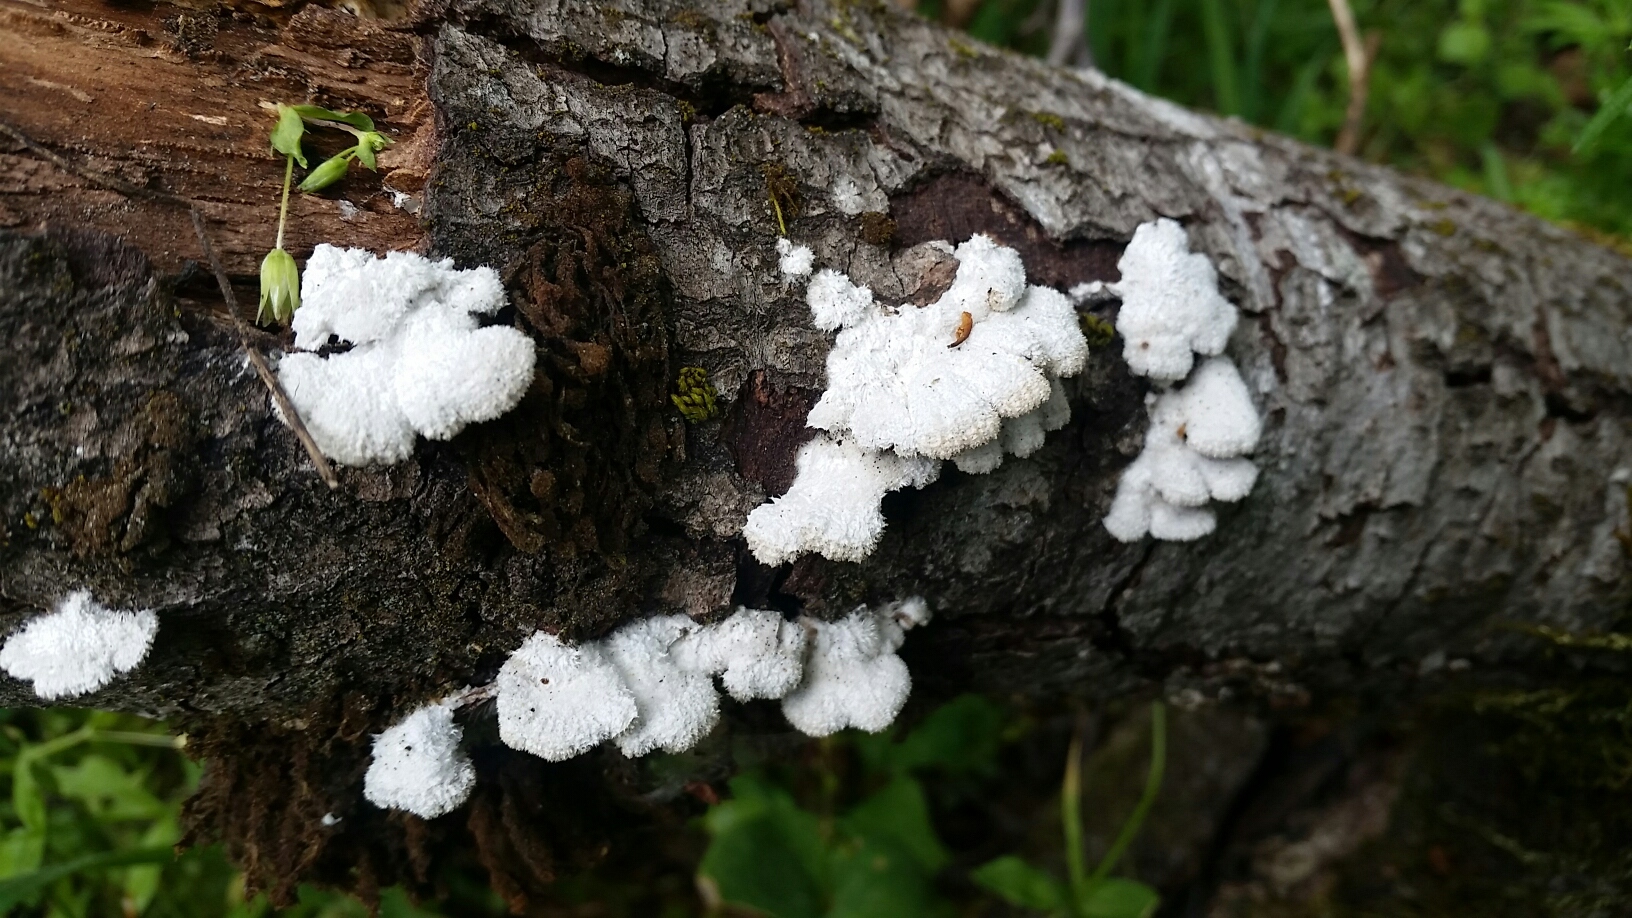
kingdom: Fungi
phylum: Basidiomycota
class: Agaricomycetes
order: Agaricales
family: Schizophyllaceae
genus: Schizophyllum
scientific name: Schizophyllum commune
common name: Common porecrust
